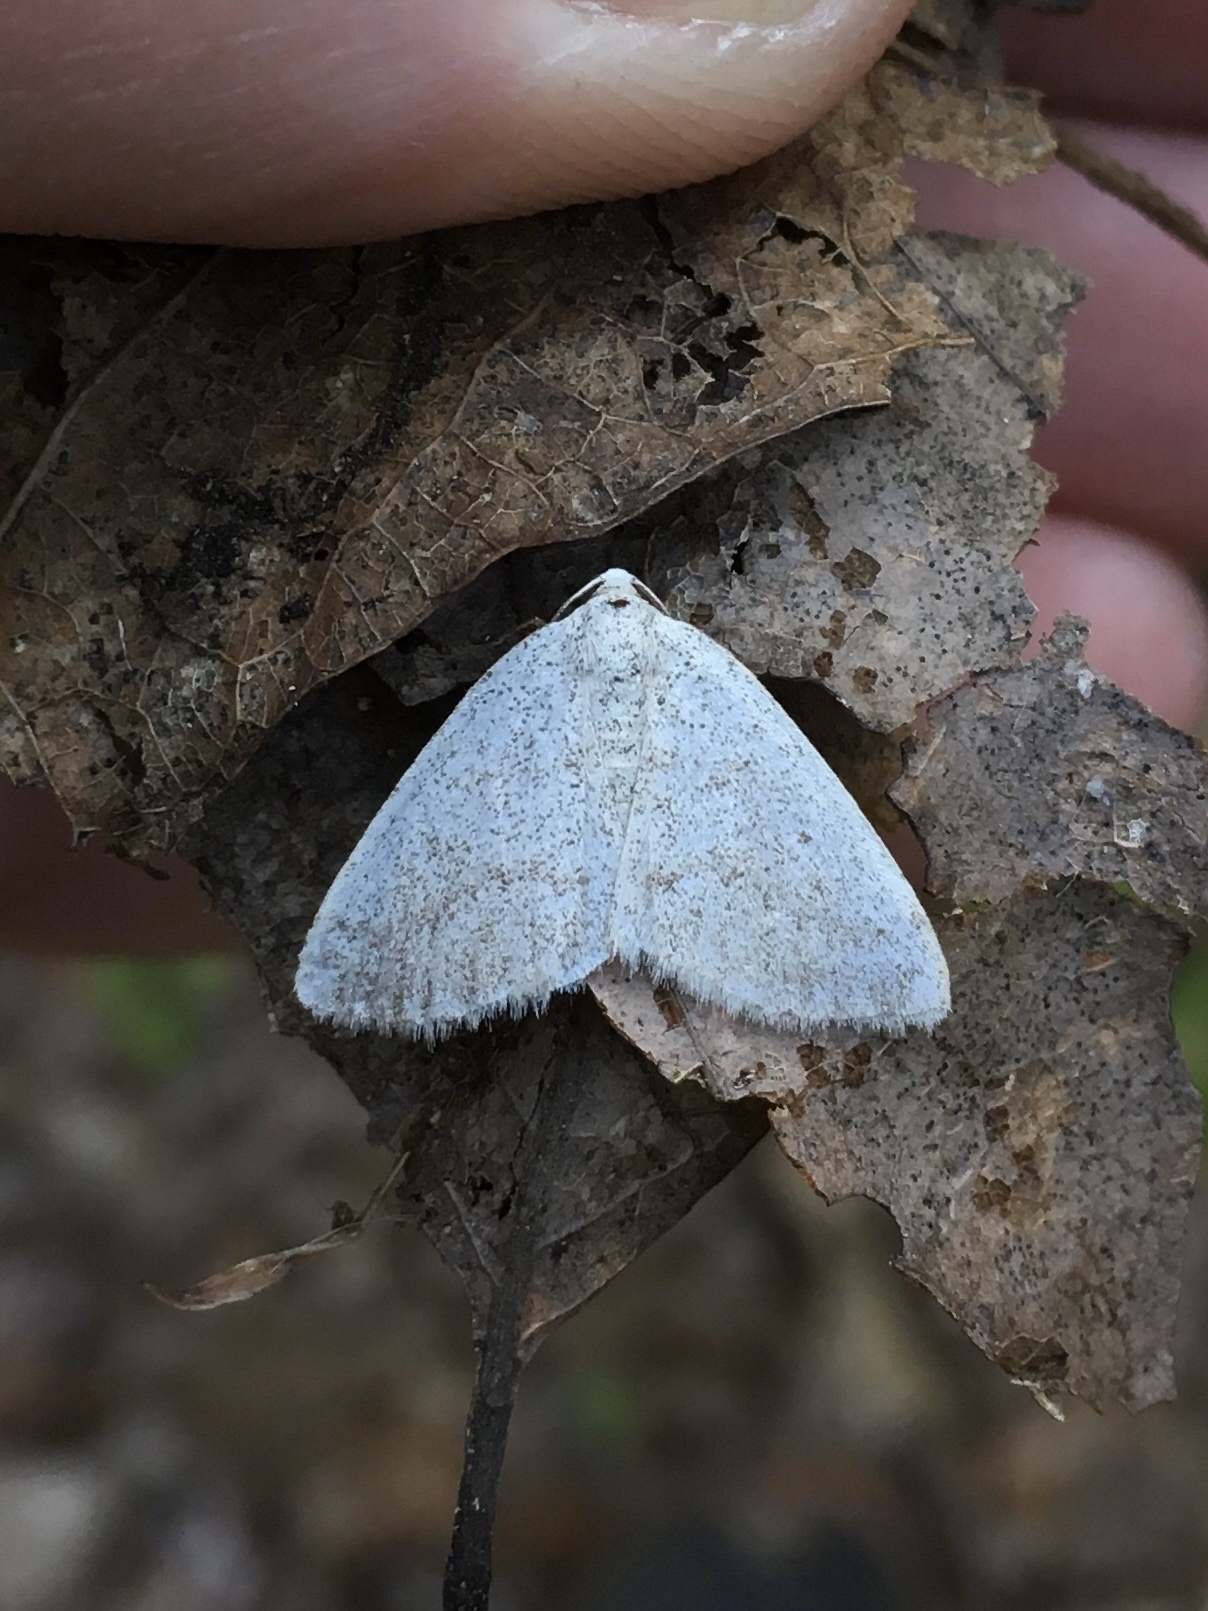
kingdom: Animalia
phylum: Arthropoda
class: Insecta
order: Lepidoptera
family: Geometridae
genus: Lomographa
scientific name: Lomographa glomeraria
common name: Gray spring moth
